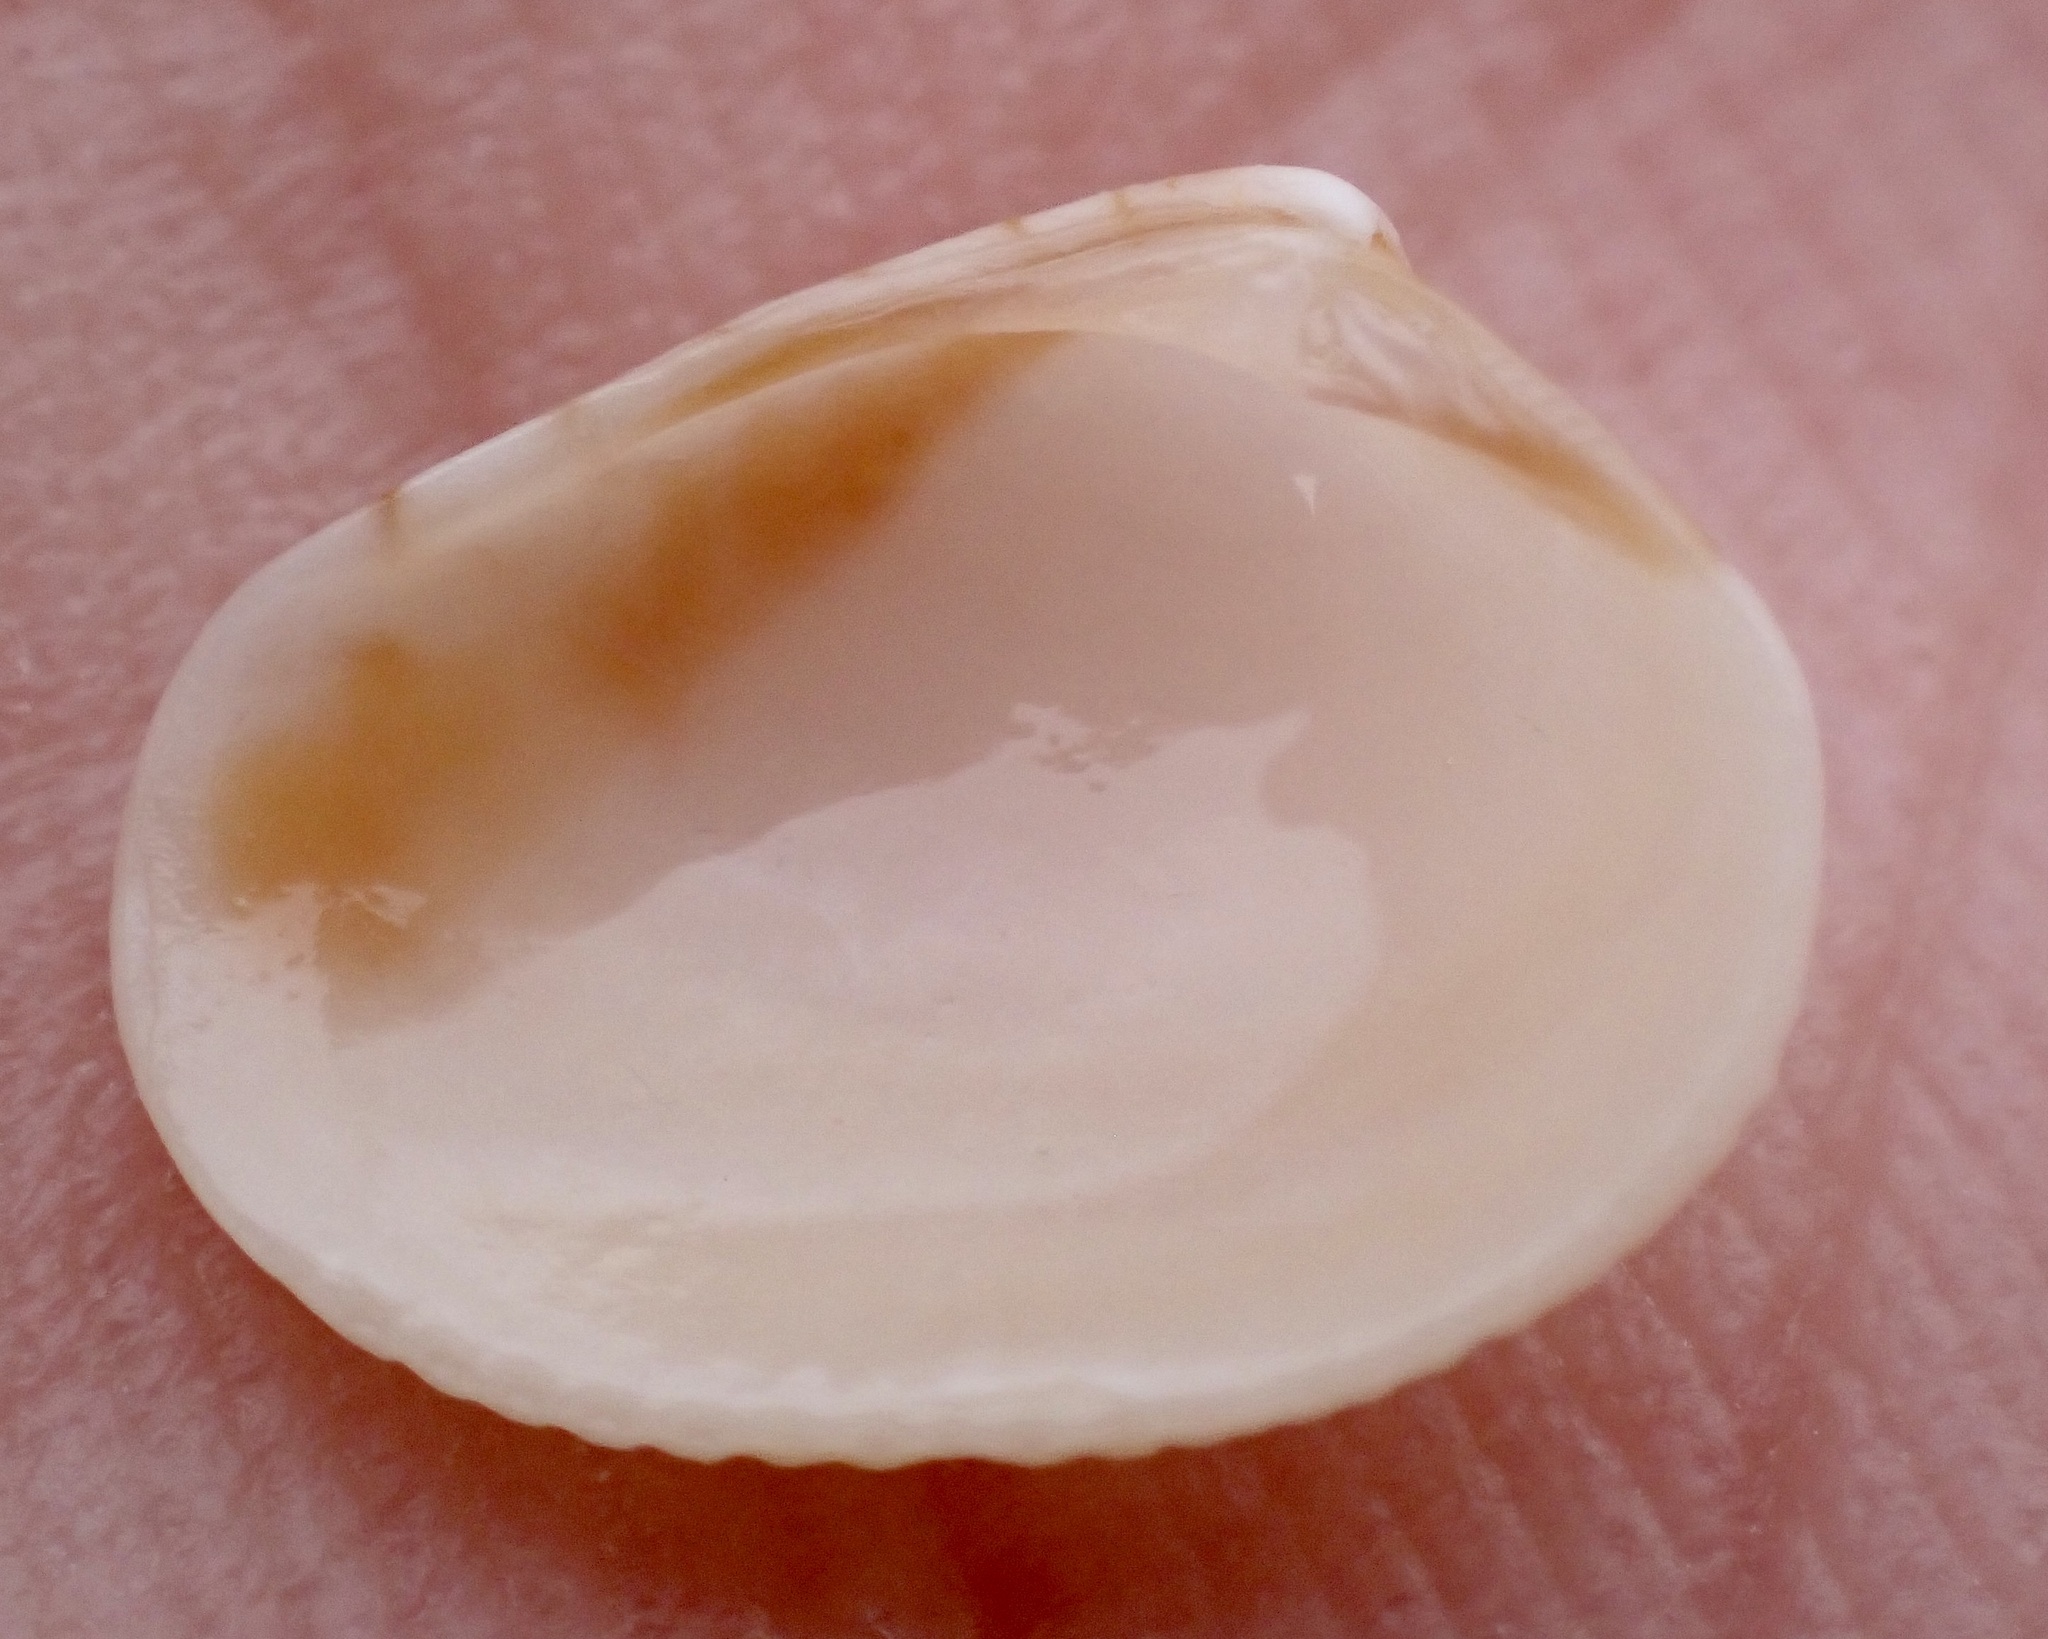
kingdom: Animalia
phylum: Mollusca
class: Bivalvia
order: Venerida
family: Veneridae
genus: Chioneryx
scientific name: Chioneryx grus
